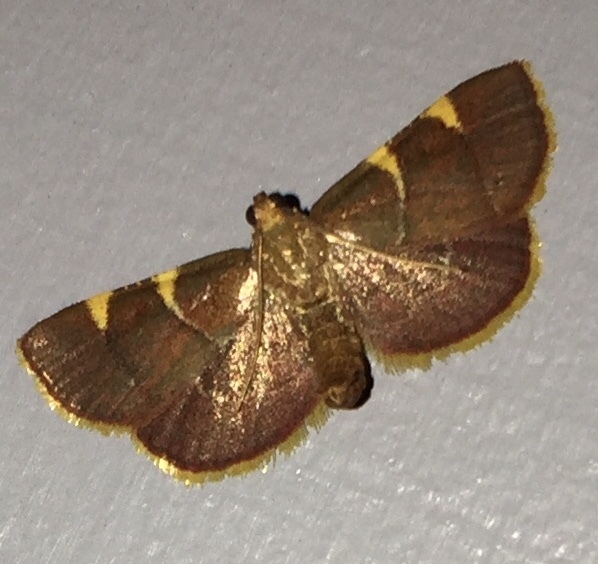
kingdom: Animalia
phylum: Arthropoda
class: Insecta
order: Lepidoptera
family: Pyralidae
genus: Hypsopygia
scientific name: Hypsopygia olinalis
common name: Yellow-fringed dolichomia moth
